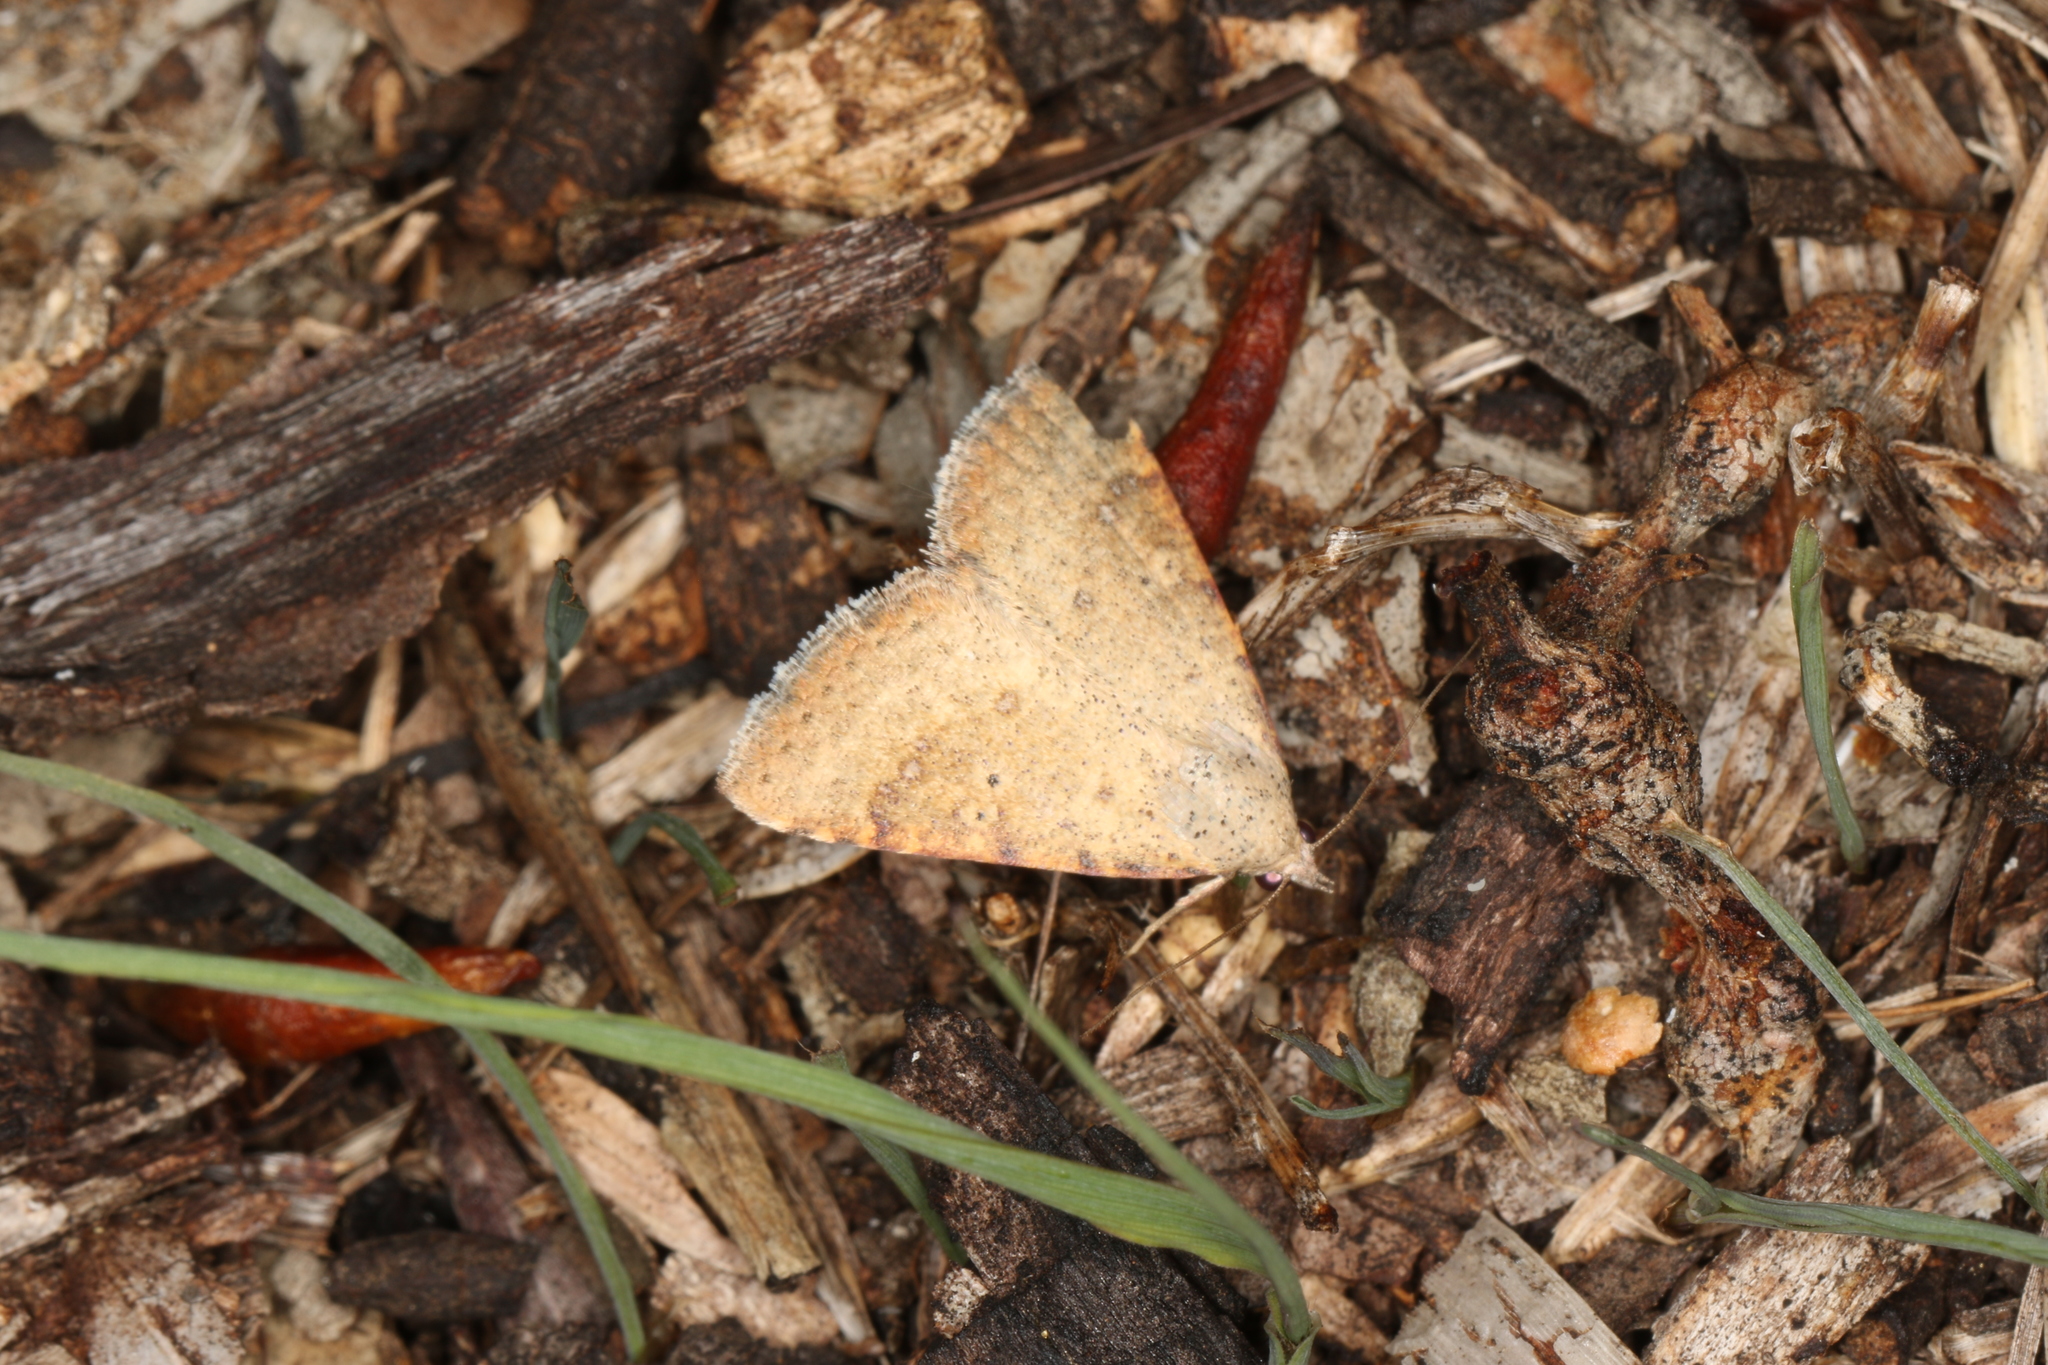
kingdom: Animalia
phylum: Arthropoda
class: Insecta
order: Lepidoptera
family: Erebidae
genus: Colobochyla
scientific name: Colobochyla
